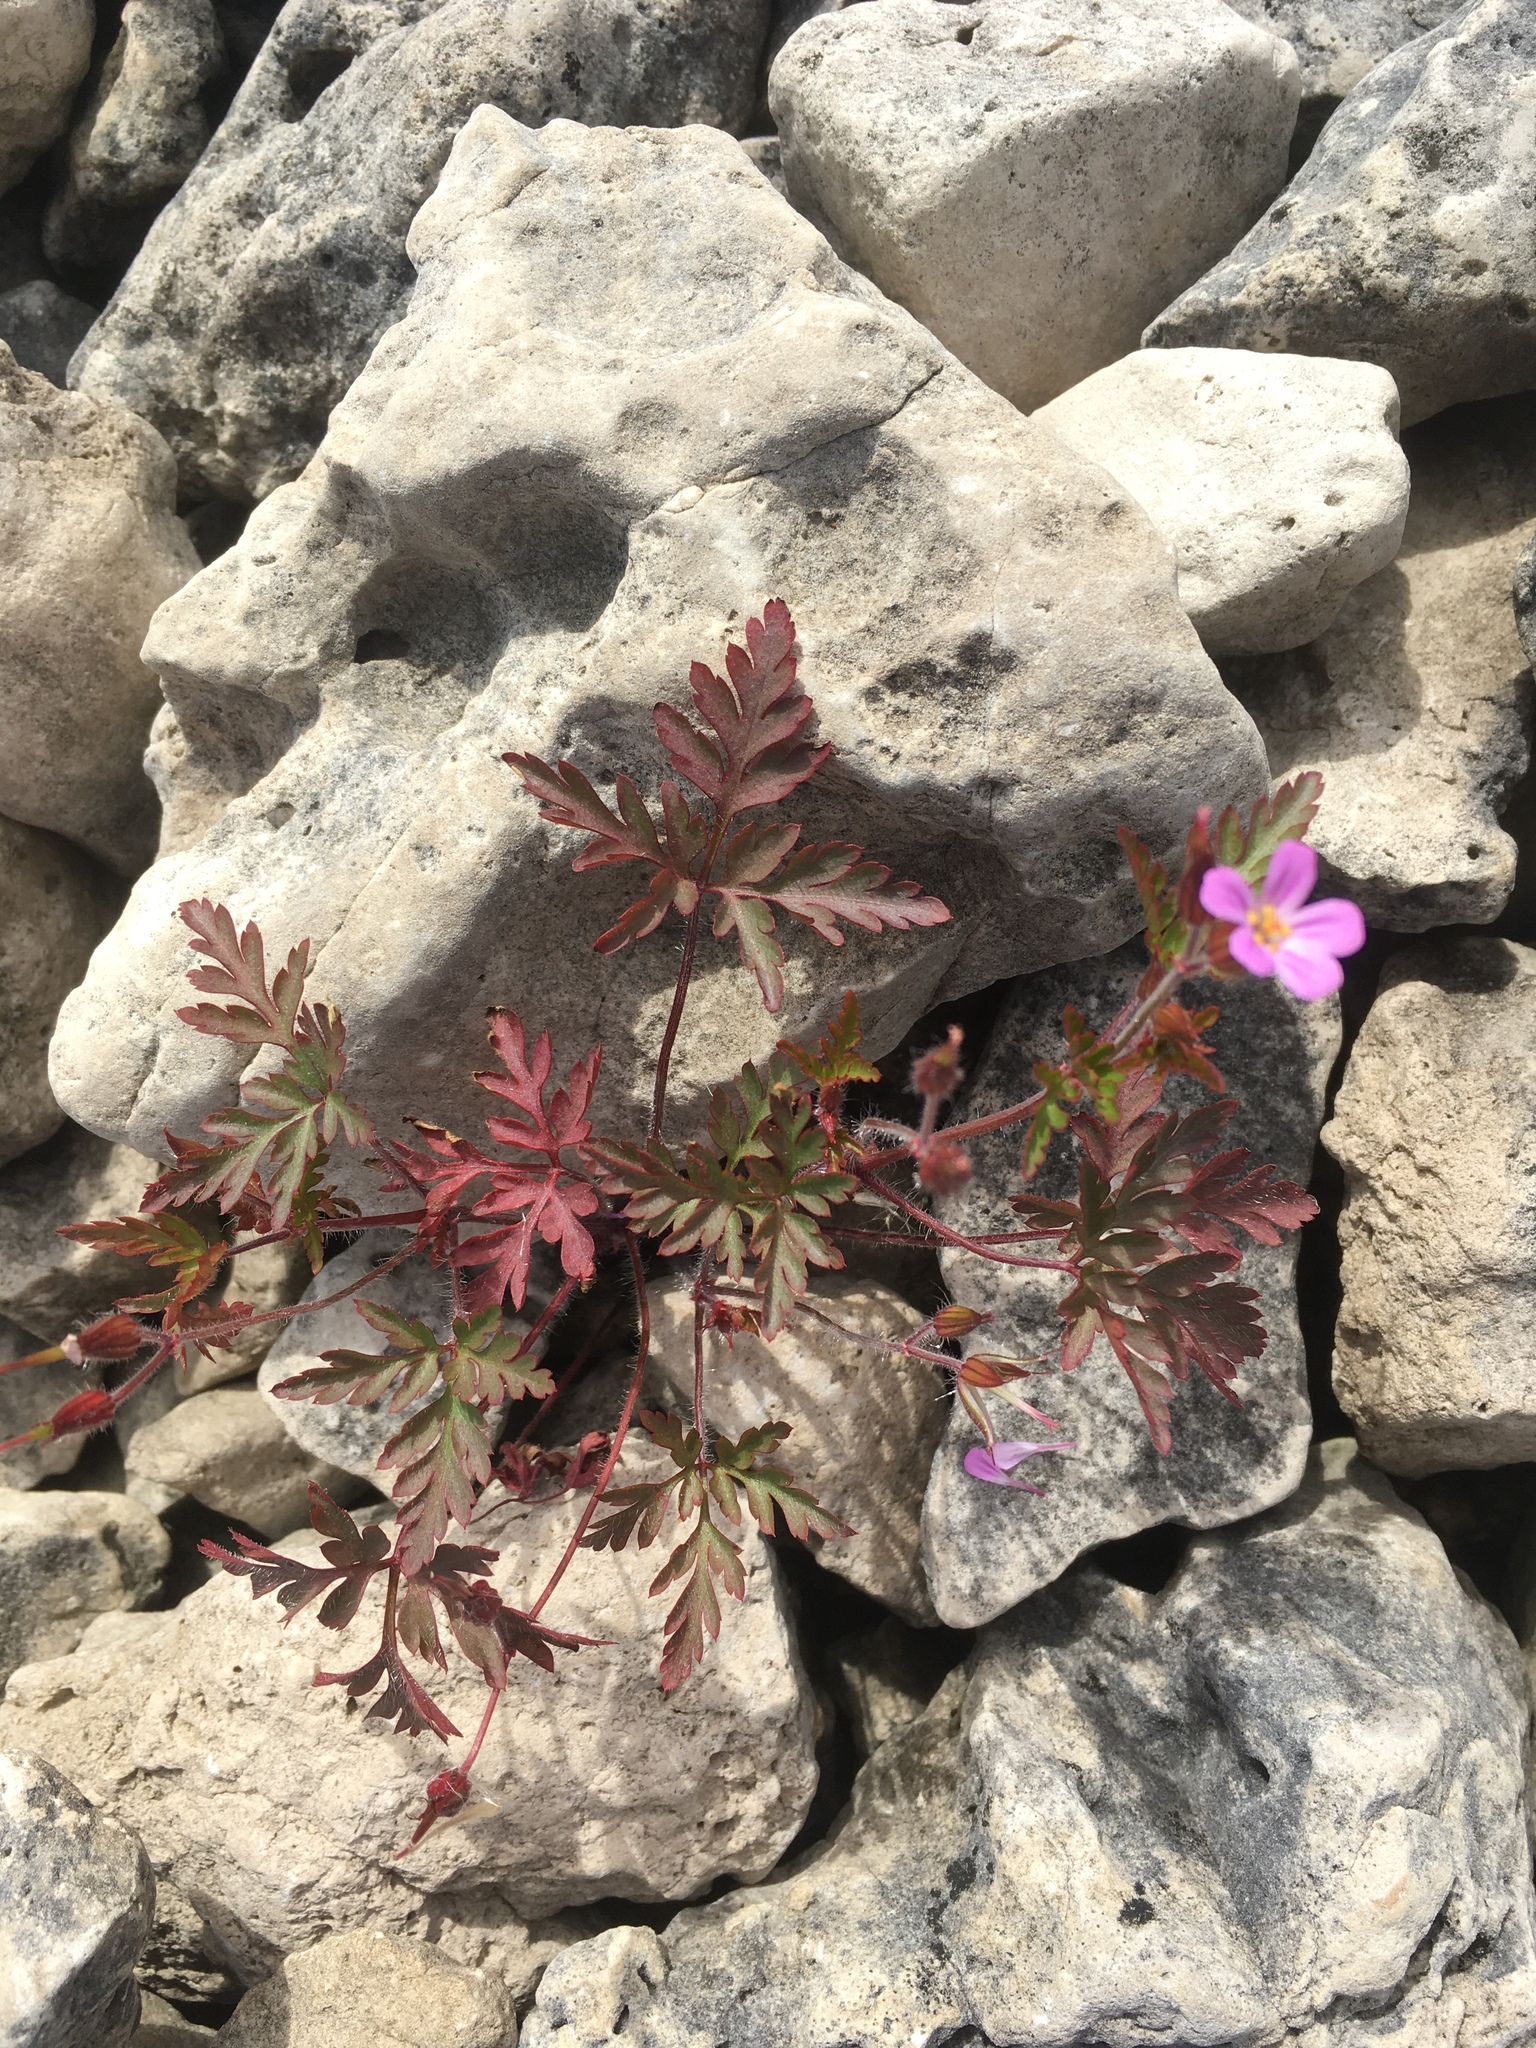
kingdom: Plantae
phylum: Tracheophyta
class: Magnoliopsida
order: Geraniales
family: Geraniaceae
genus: Geranium
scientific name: Geranium robertianum
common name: Herb-robert
